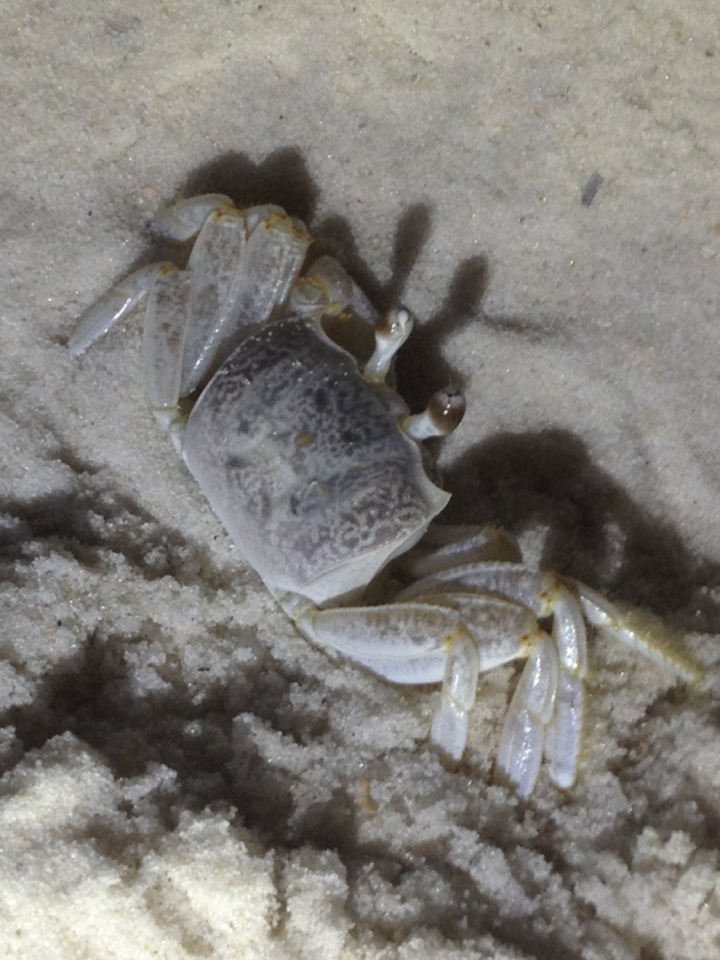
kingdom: Animalia
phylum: Arthropoda
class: Malacostraca
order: Decapoda
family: Ocypodidae
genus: Ocypode
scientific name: Ocypode quadrata
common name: Ghost crab
